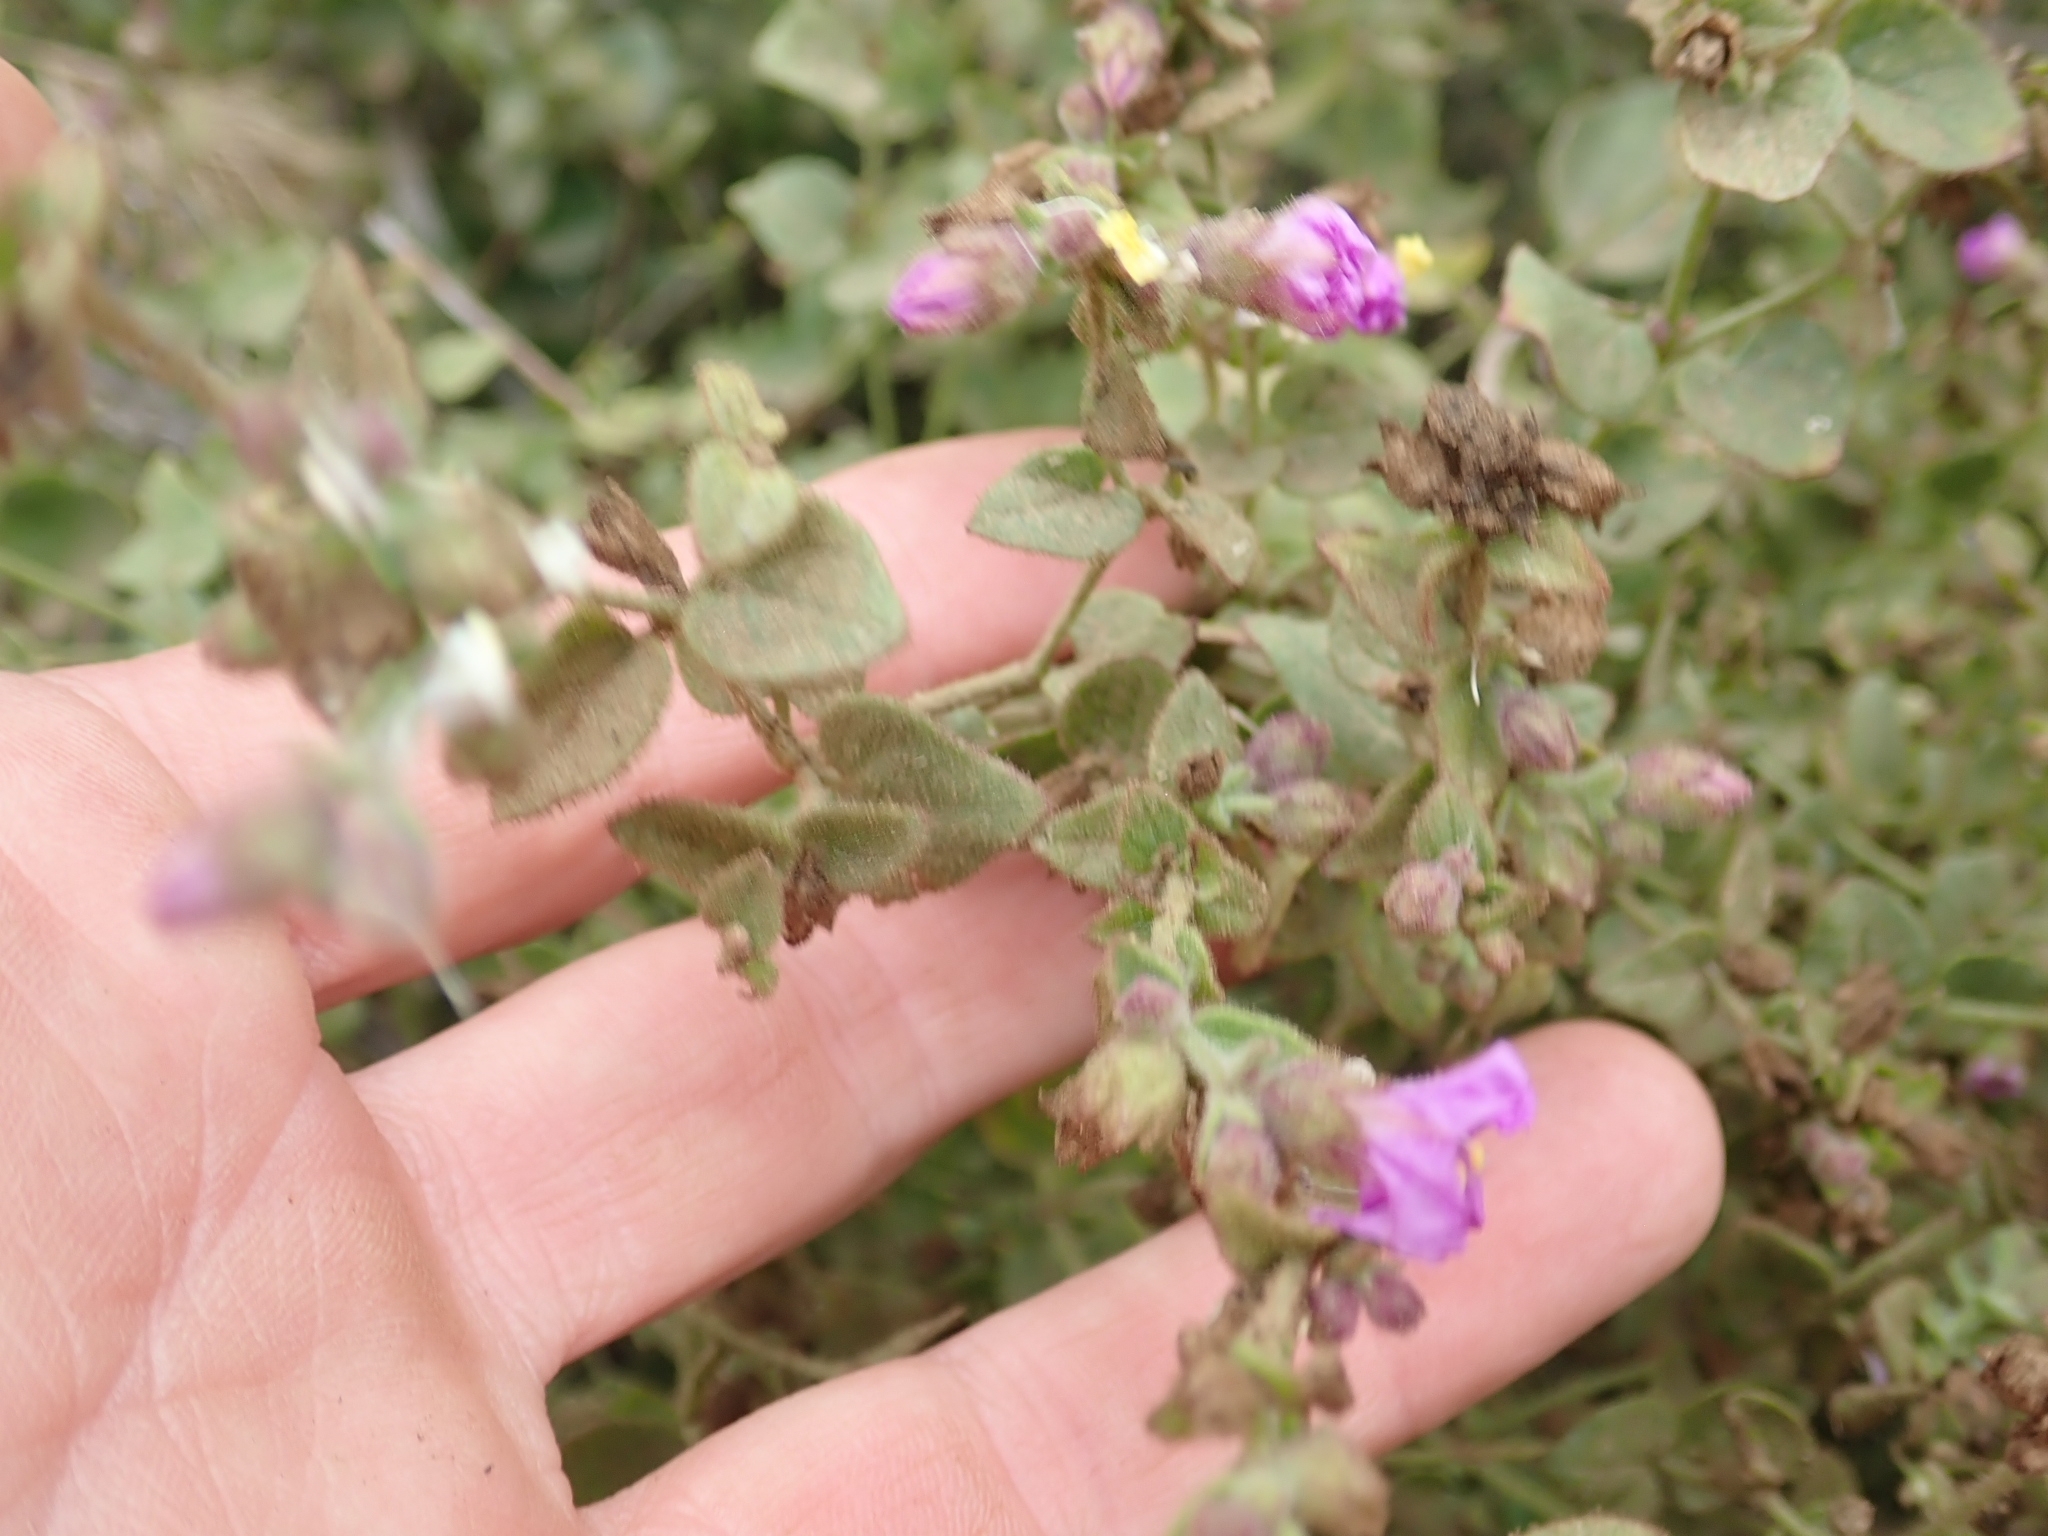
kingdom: Plantae
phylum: Tracheophyta
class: Magnoliopsida
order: Caryophyllales
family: Nyctaginaceae
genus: Mirabilis
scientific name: Mirabilis laevis
